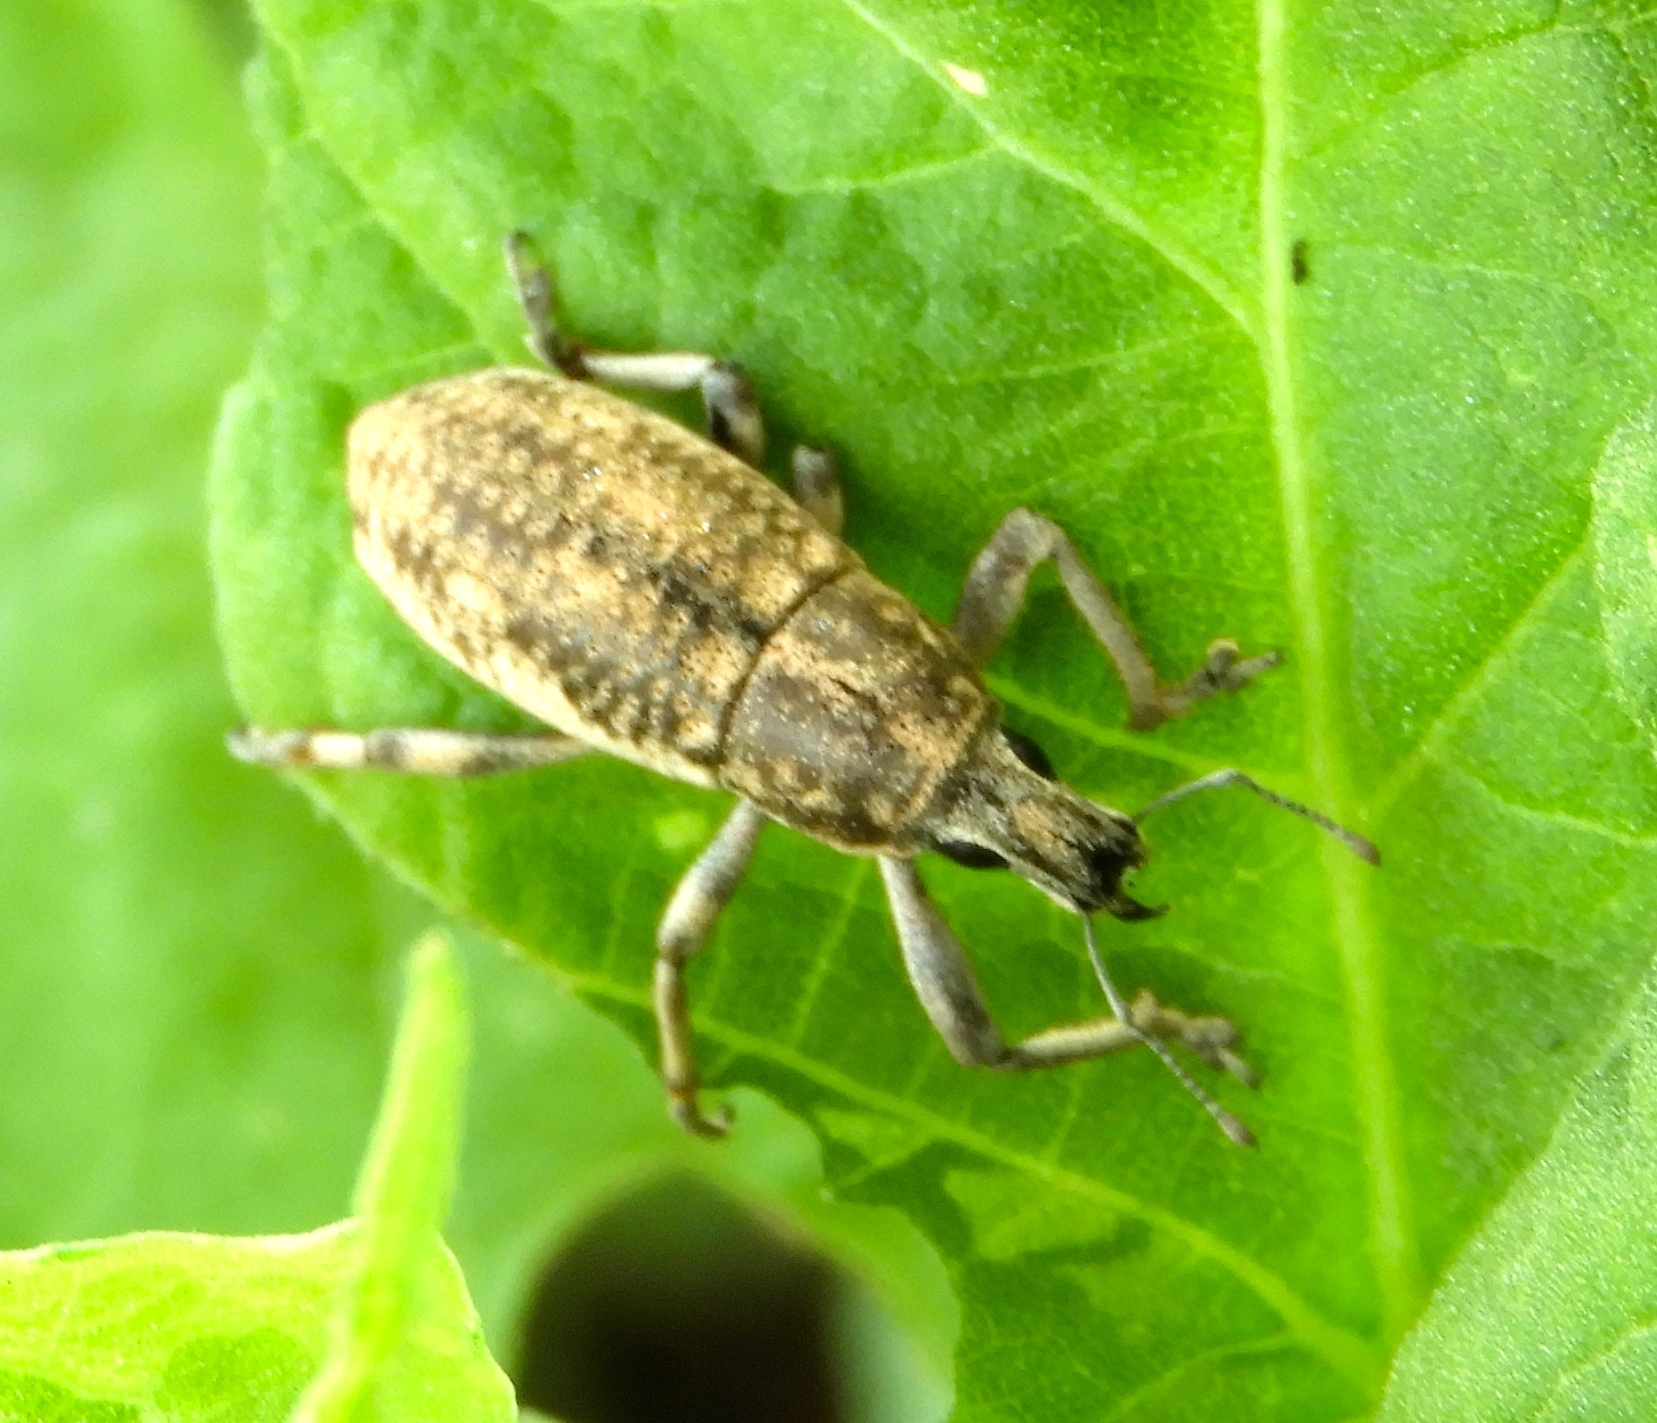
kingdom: Animalia
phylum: Arthropoda
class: Insecta
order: Coleoptera
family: Curculionidae
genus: Epicaerus
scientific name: Epicaerus
